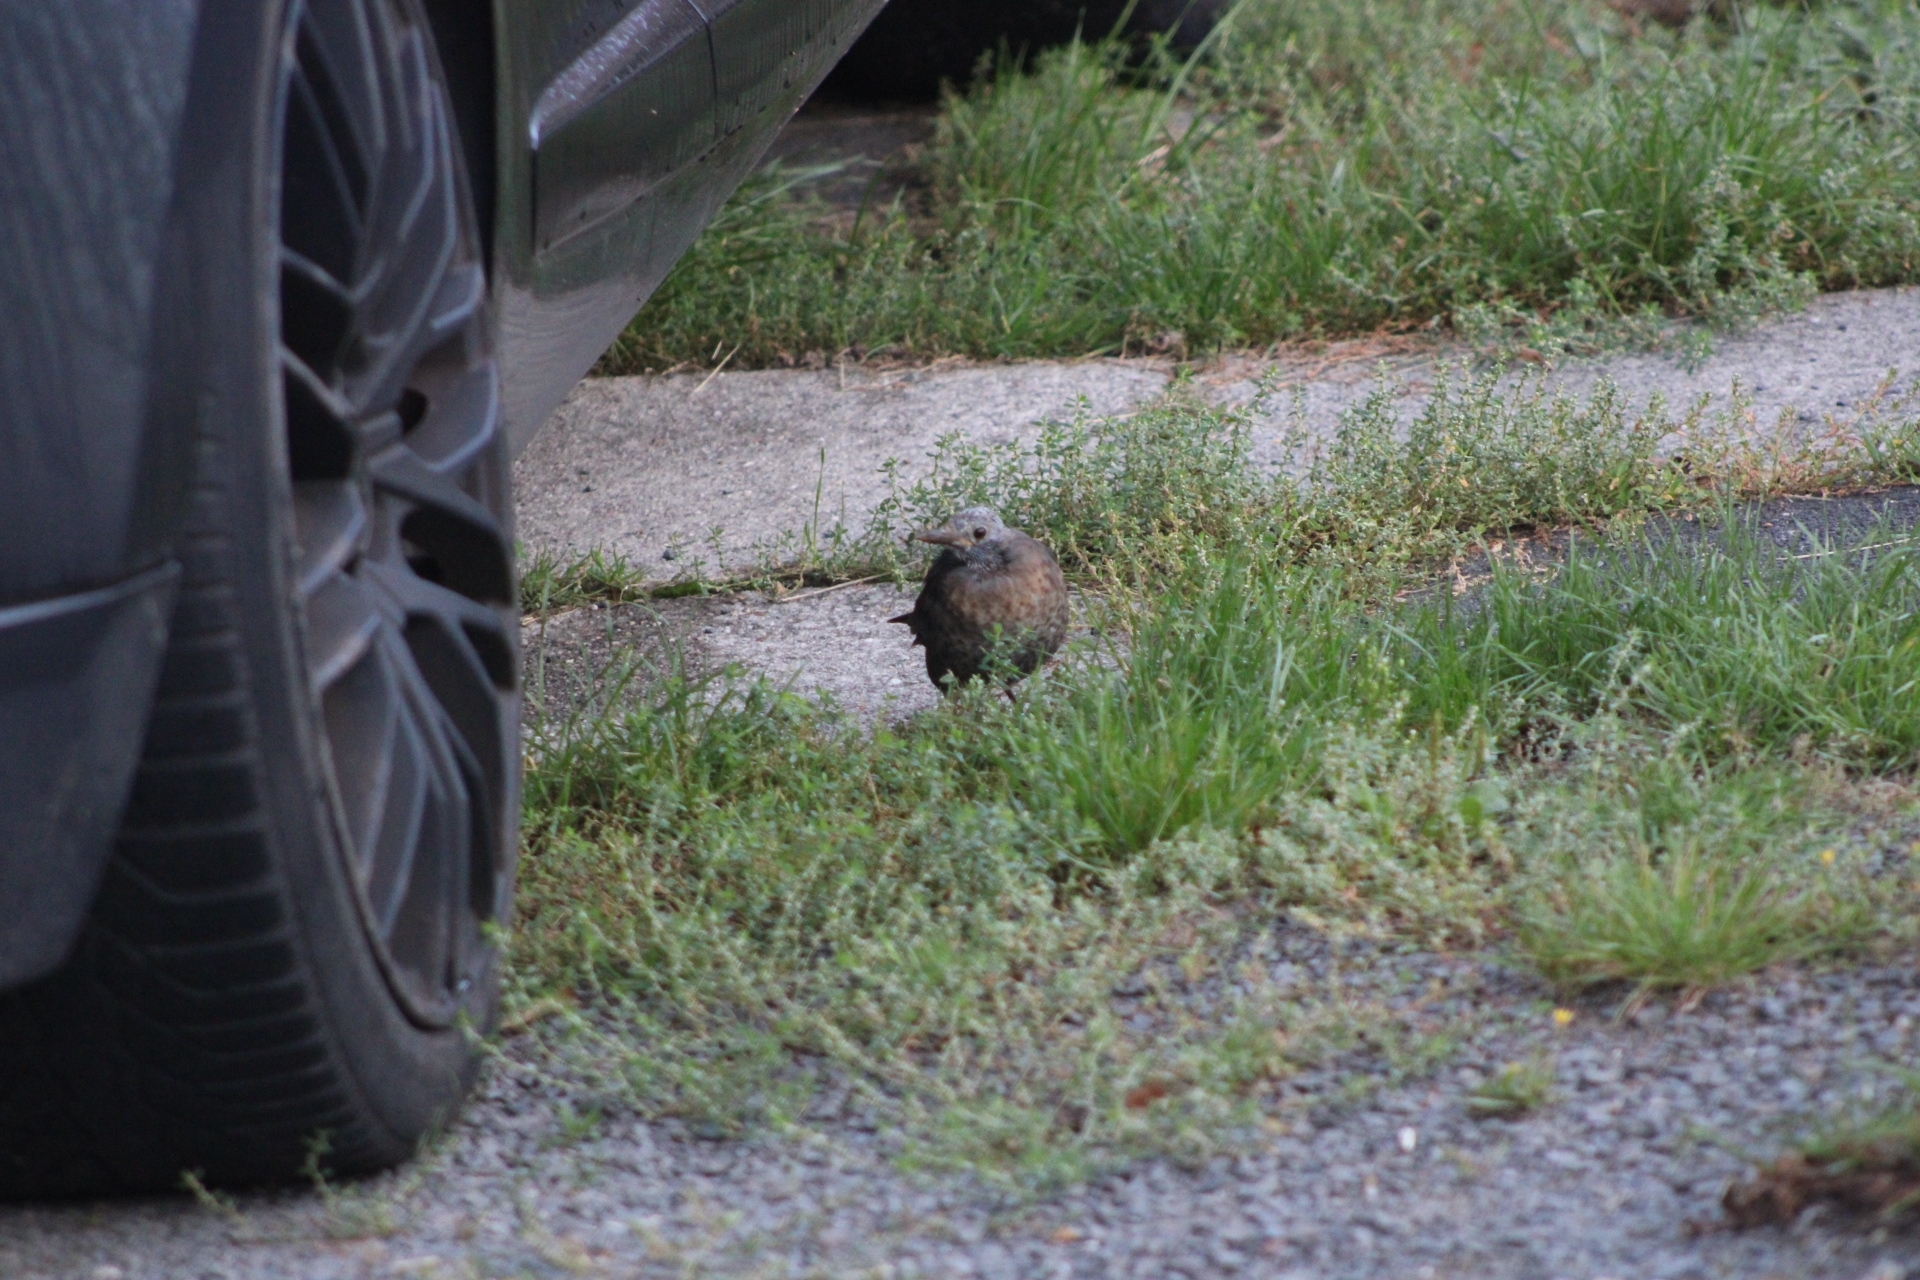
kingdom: Animalia
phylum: Chordata
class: Aves
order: Passeriformes
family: Turdidae
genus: Turdus
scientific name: Turdus merula
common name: Common blackbird
